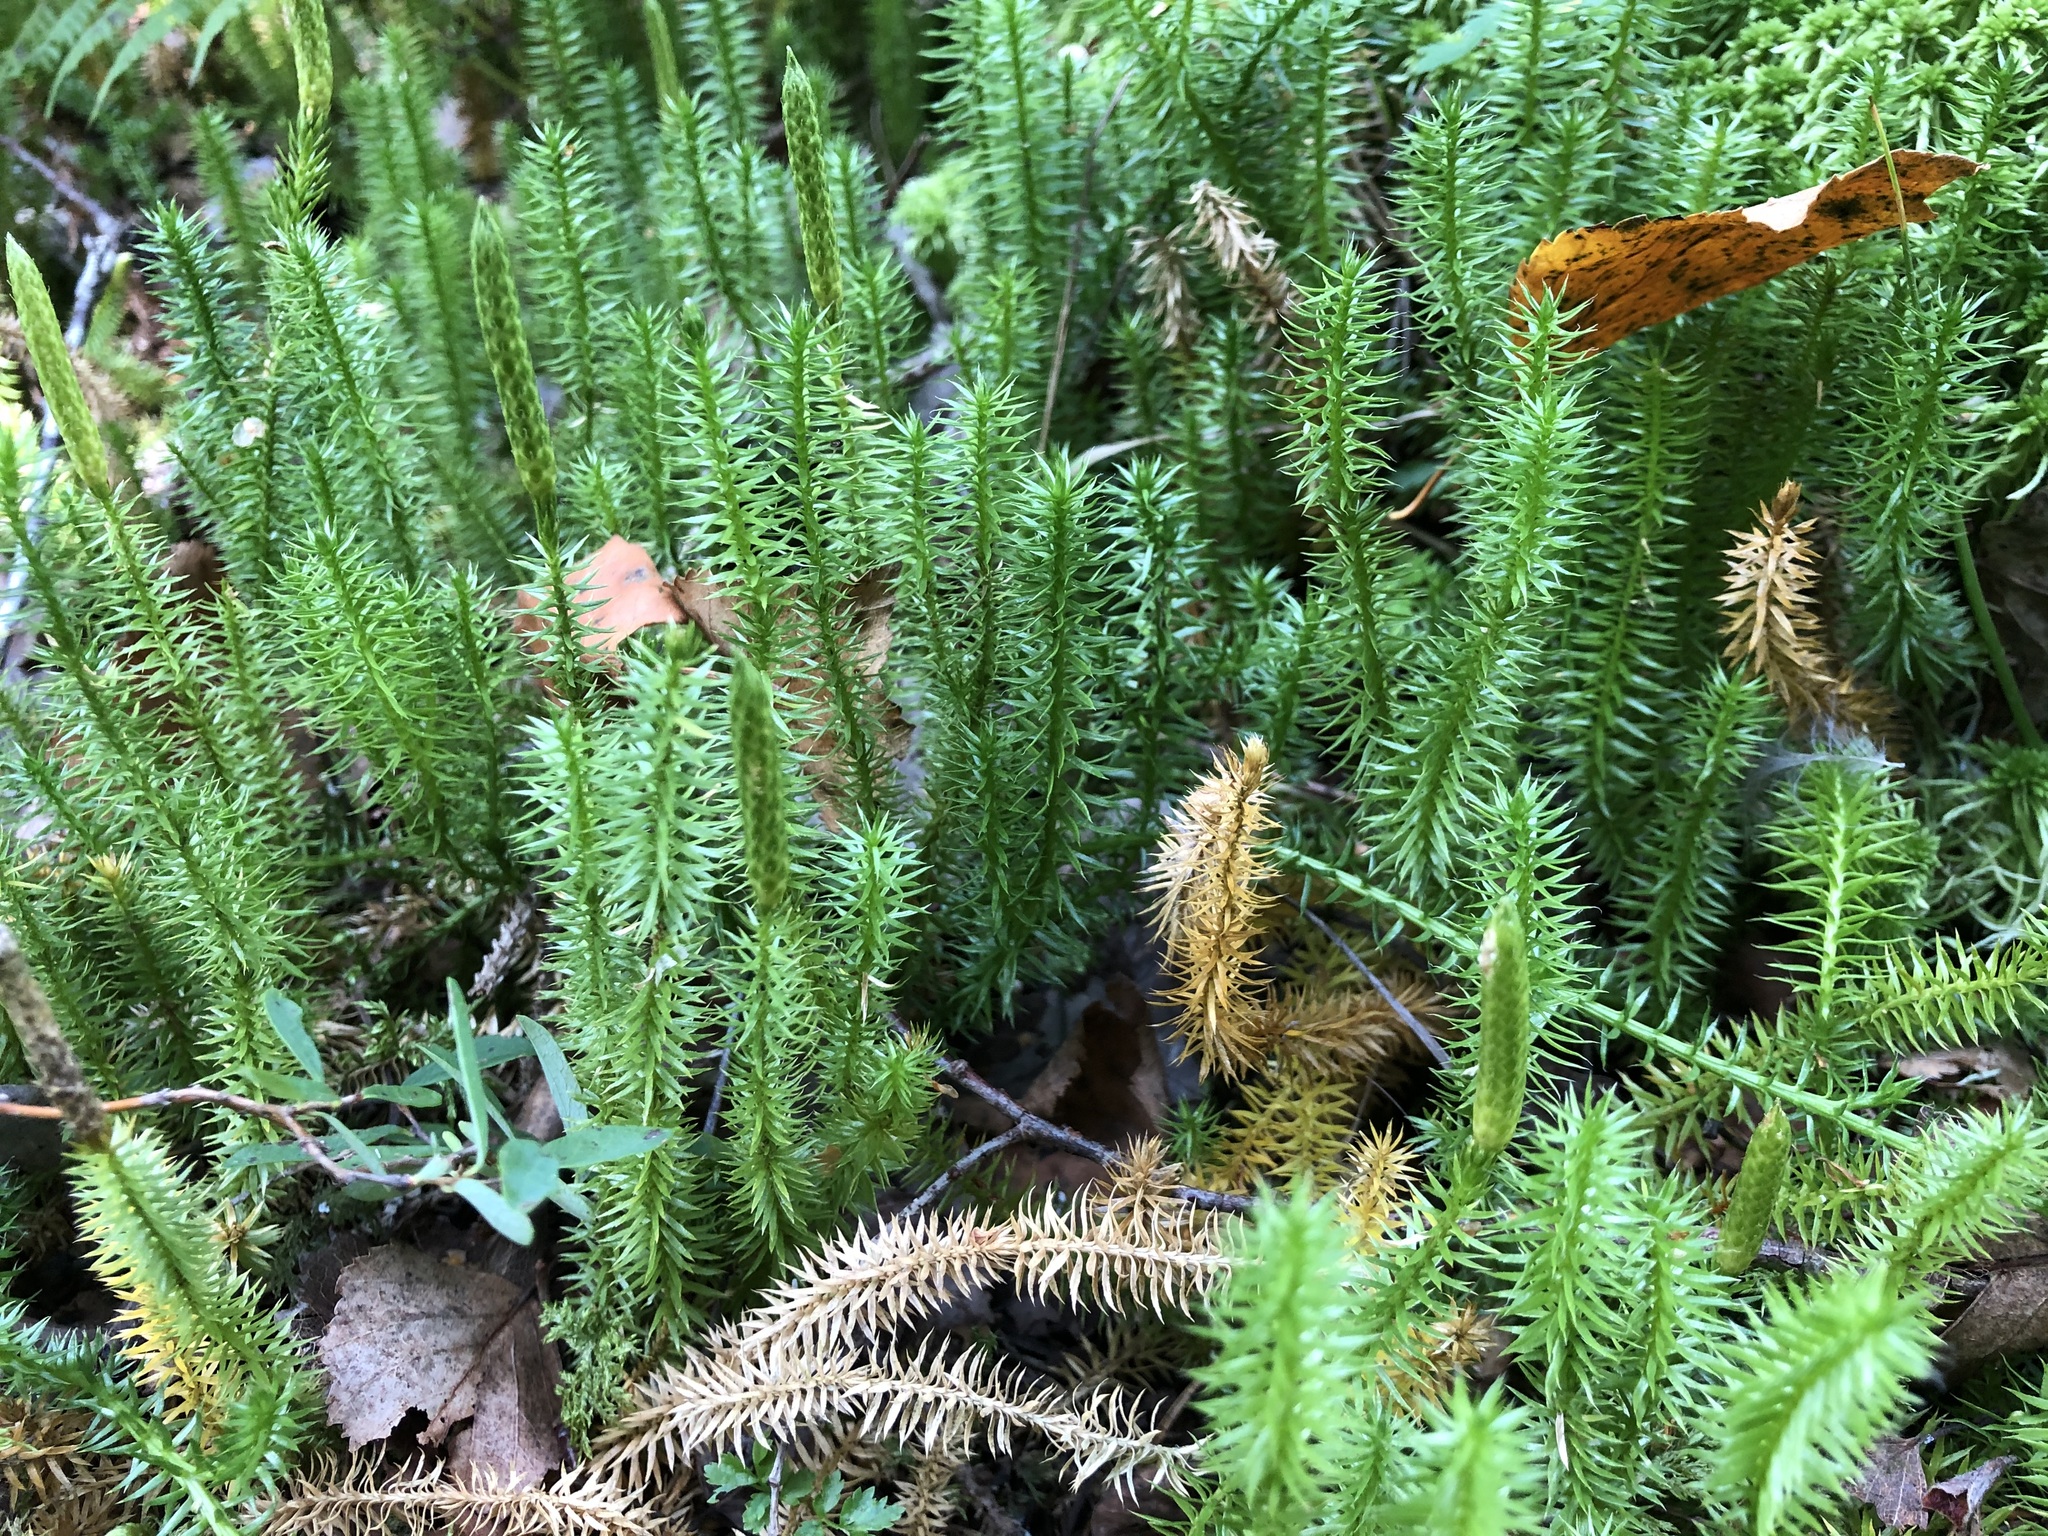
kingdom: Plantae
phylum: Tracheophyta
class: Lycopodiopsida
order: Lycopodiales
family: Lycopodiaceae
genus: Spinulum
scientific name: Spinulum annotinum
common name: Interrupted club-moss
